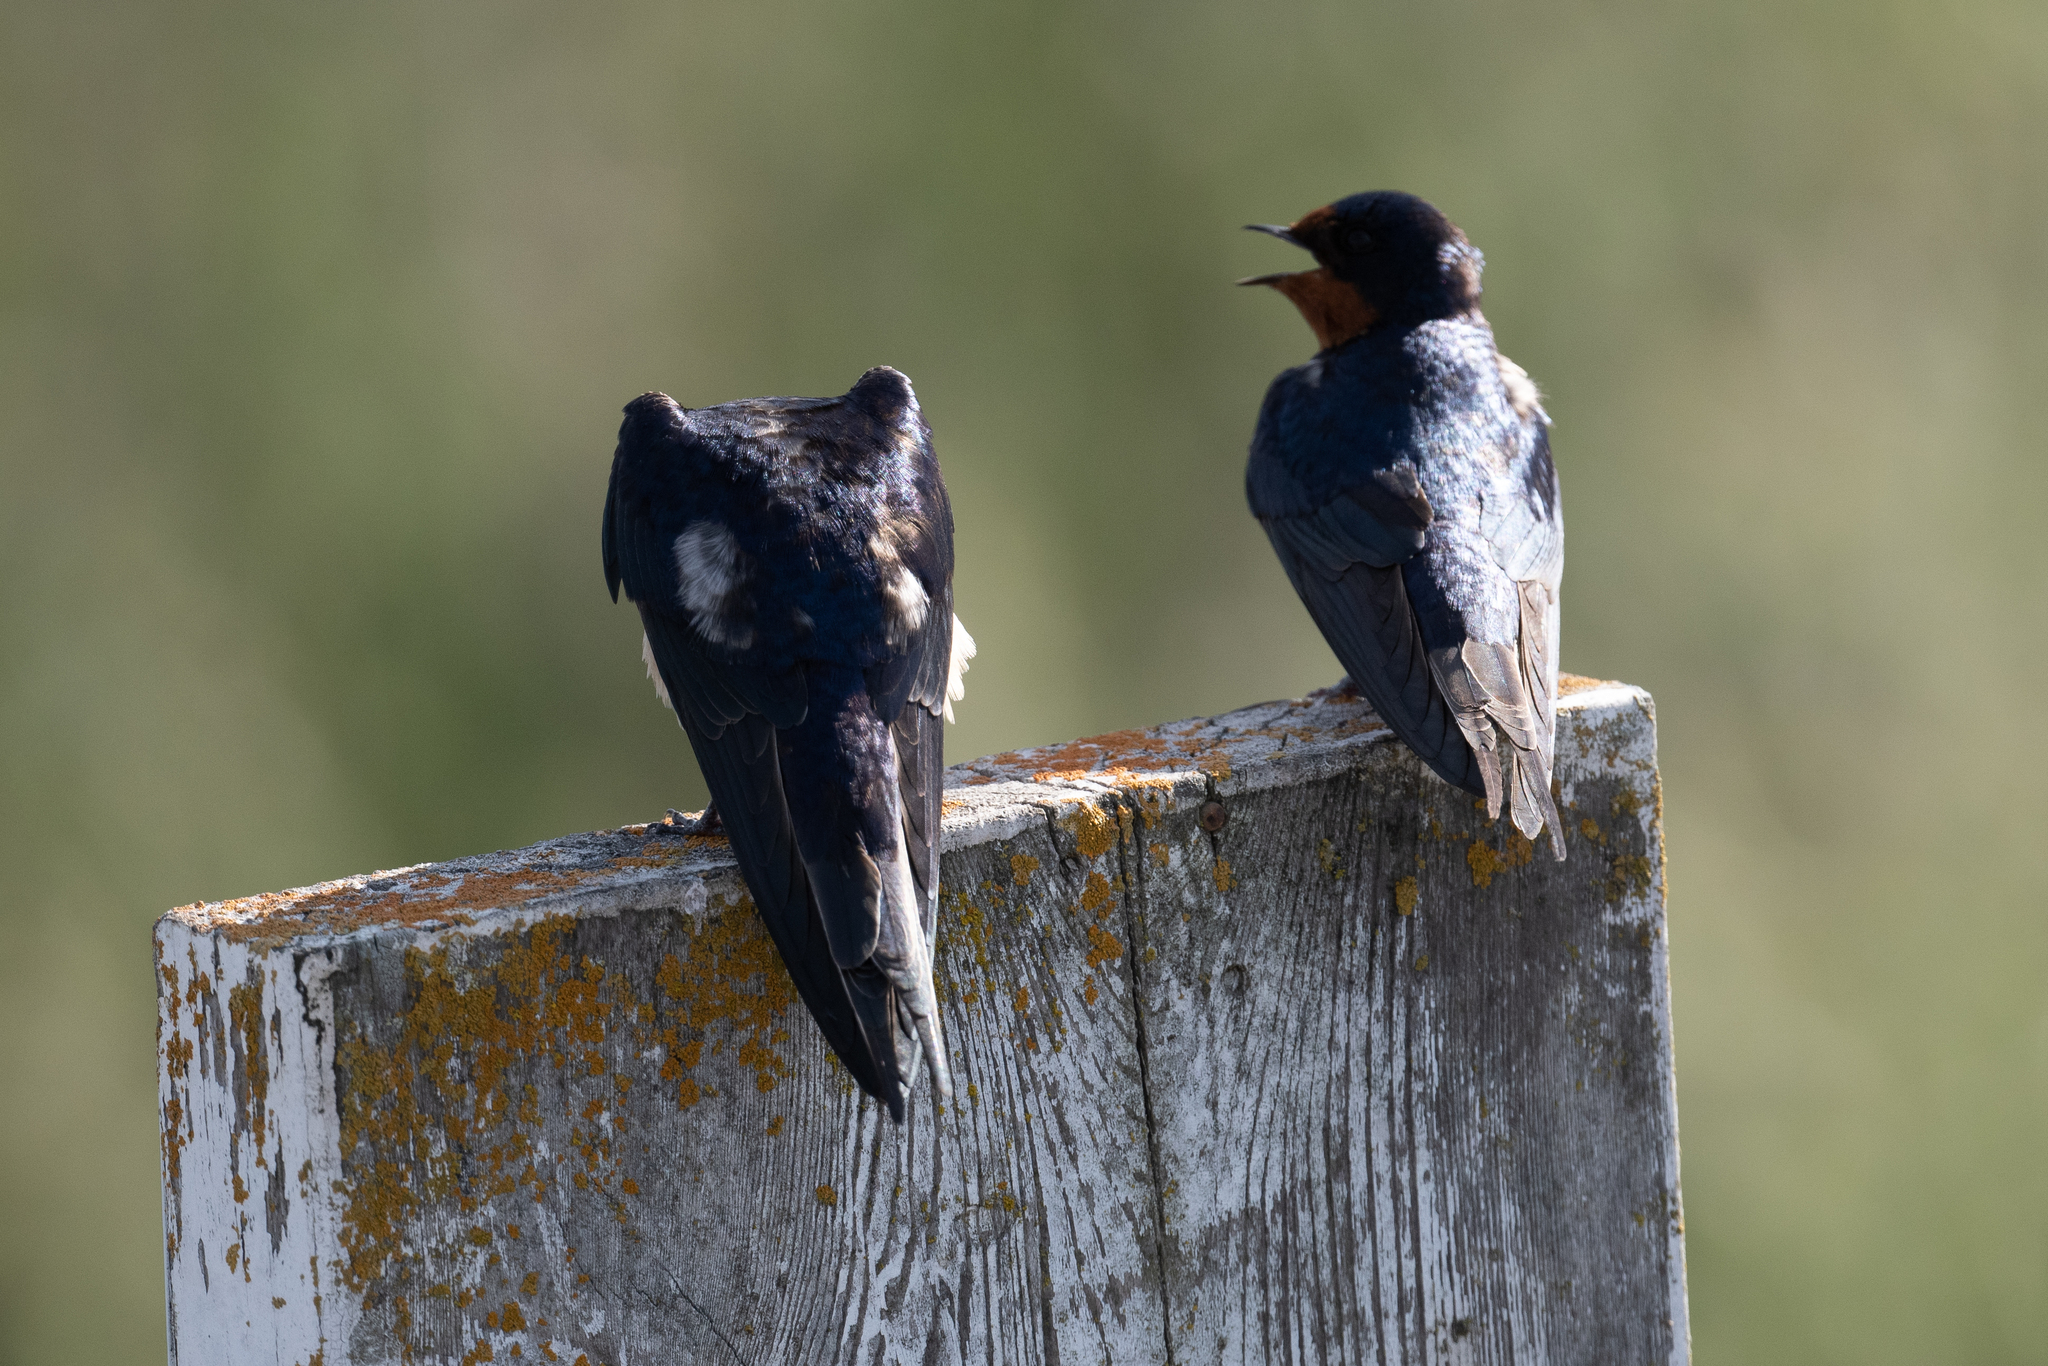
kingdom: Animalia
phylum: Chordata
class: Aves
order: Passeriformes
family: Hirundinidae
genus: Hirundo
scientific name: Hirundo rustica
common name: Barn swallow
